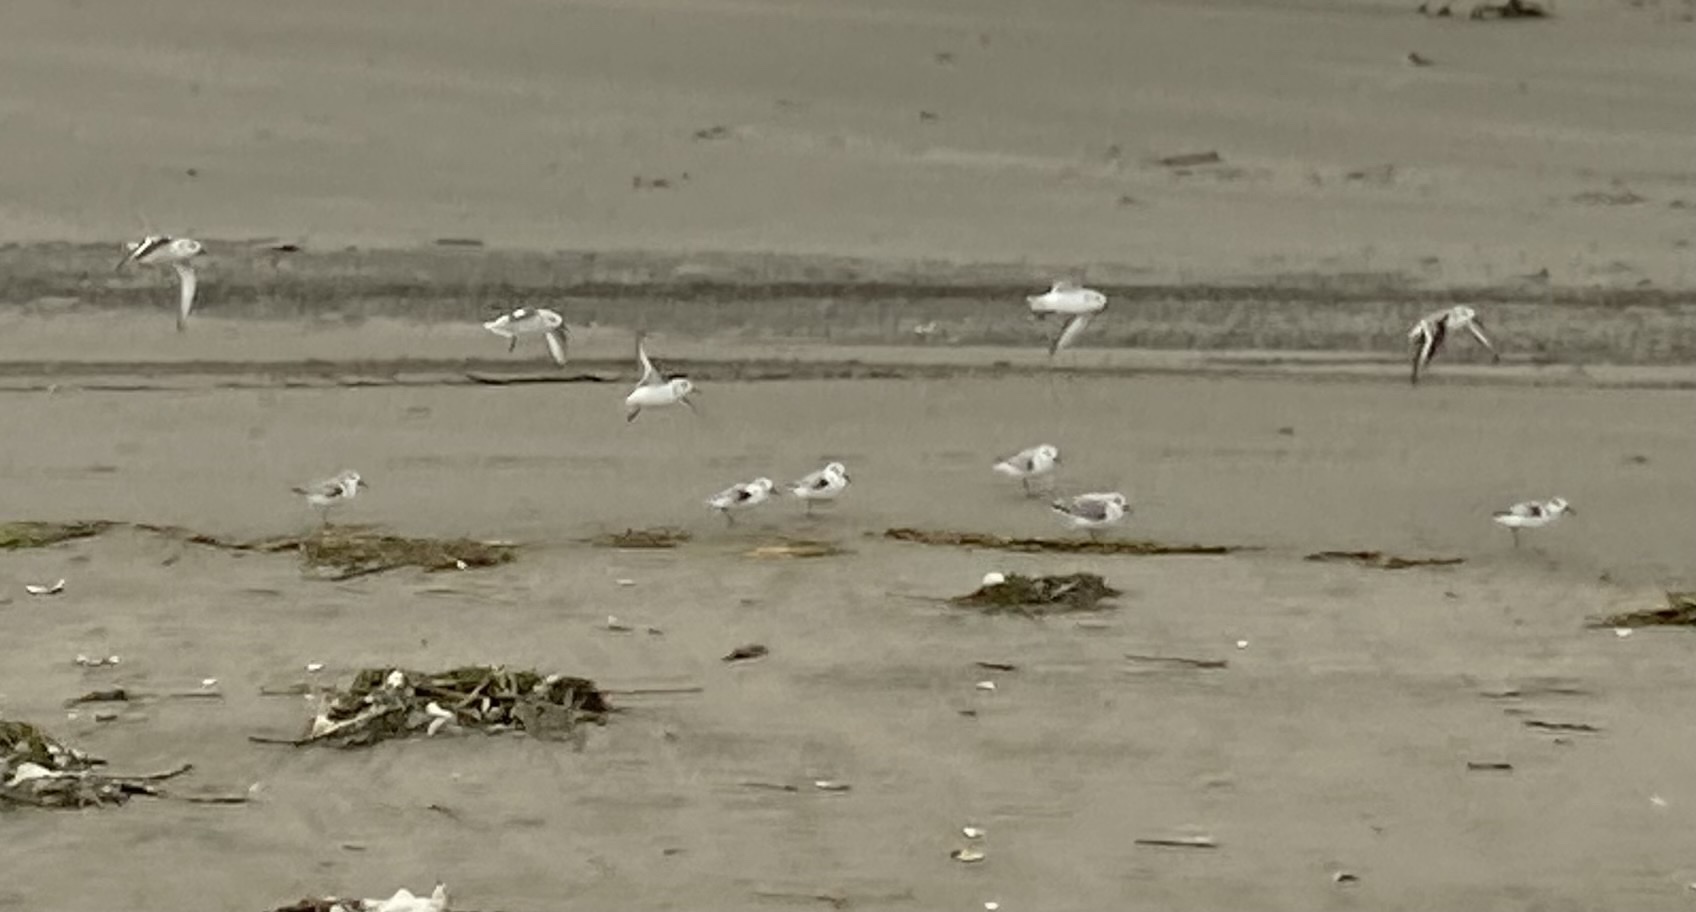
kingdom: Animalia
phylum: Chordata
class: Aves
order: Charadriiformes
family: Scolopacidae
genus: Calidris
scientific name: Calidris alba
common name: Sanderling
